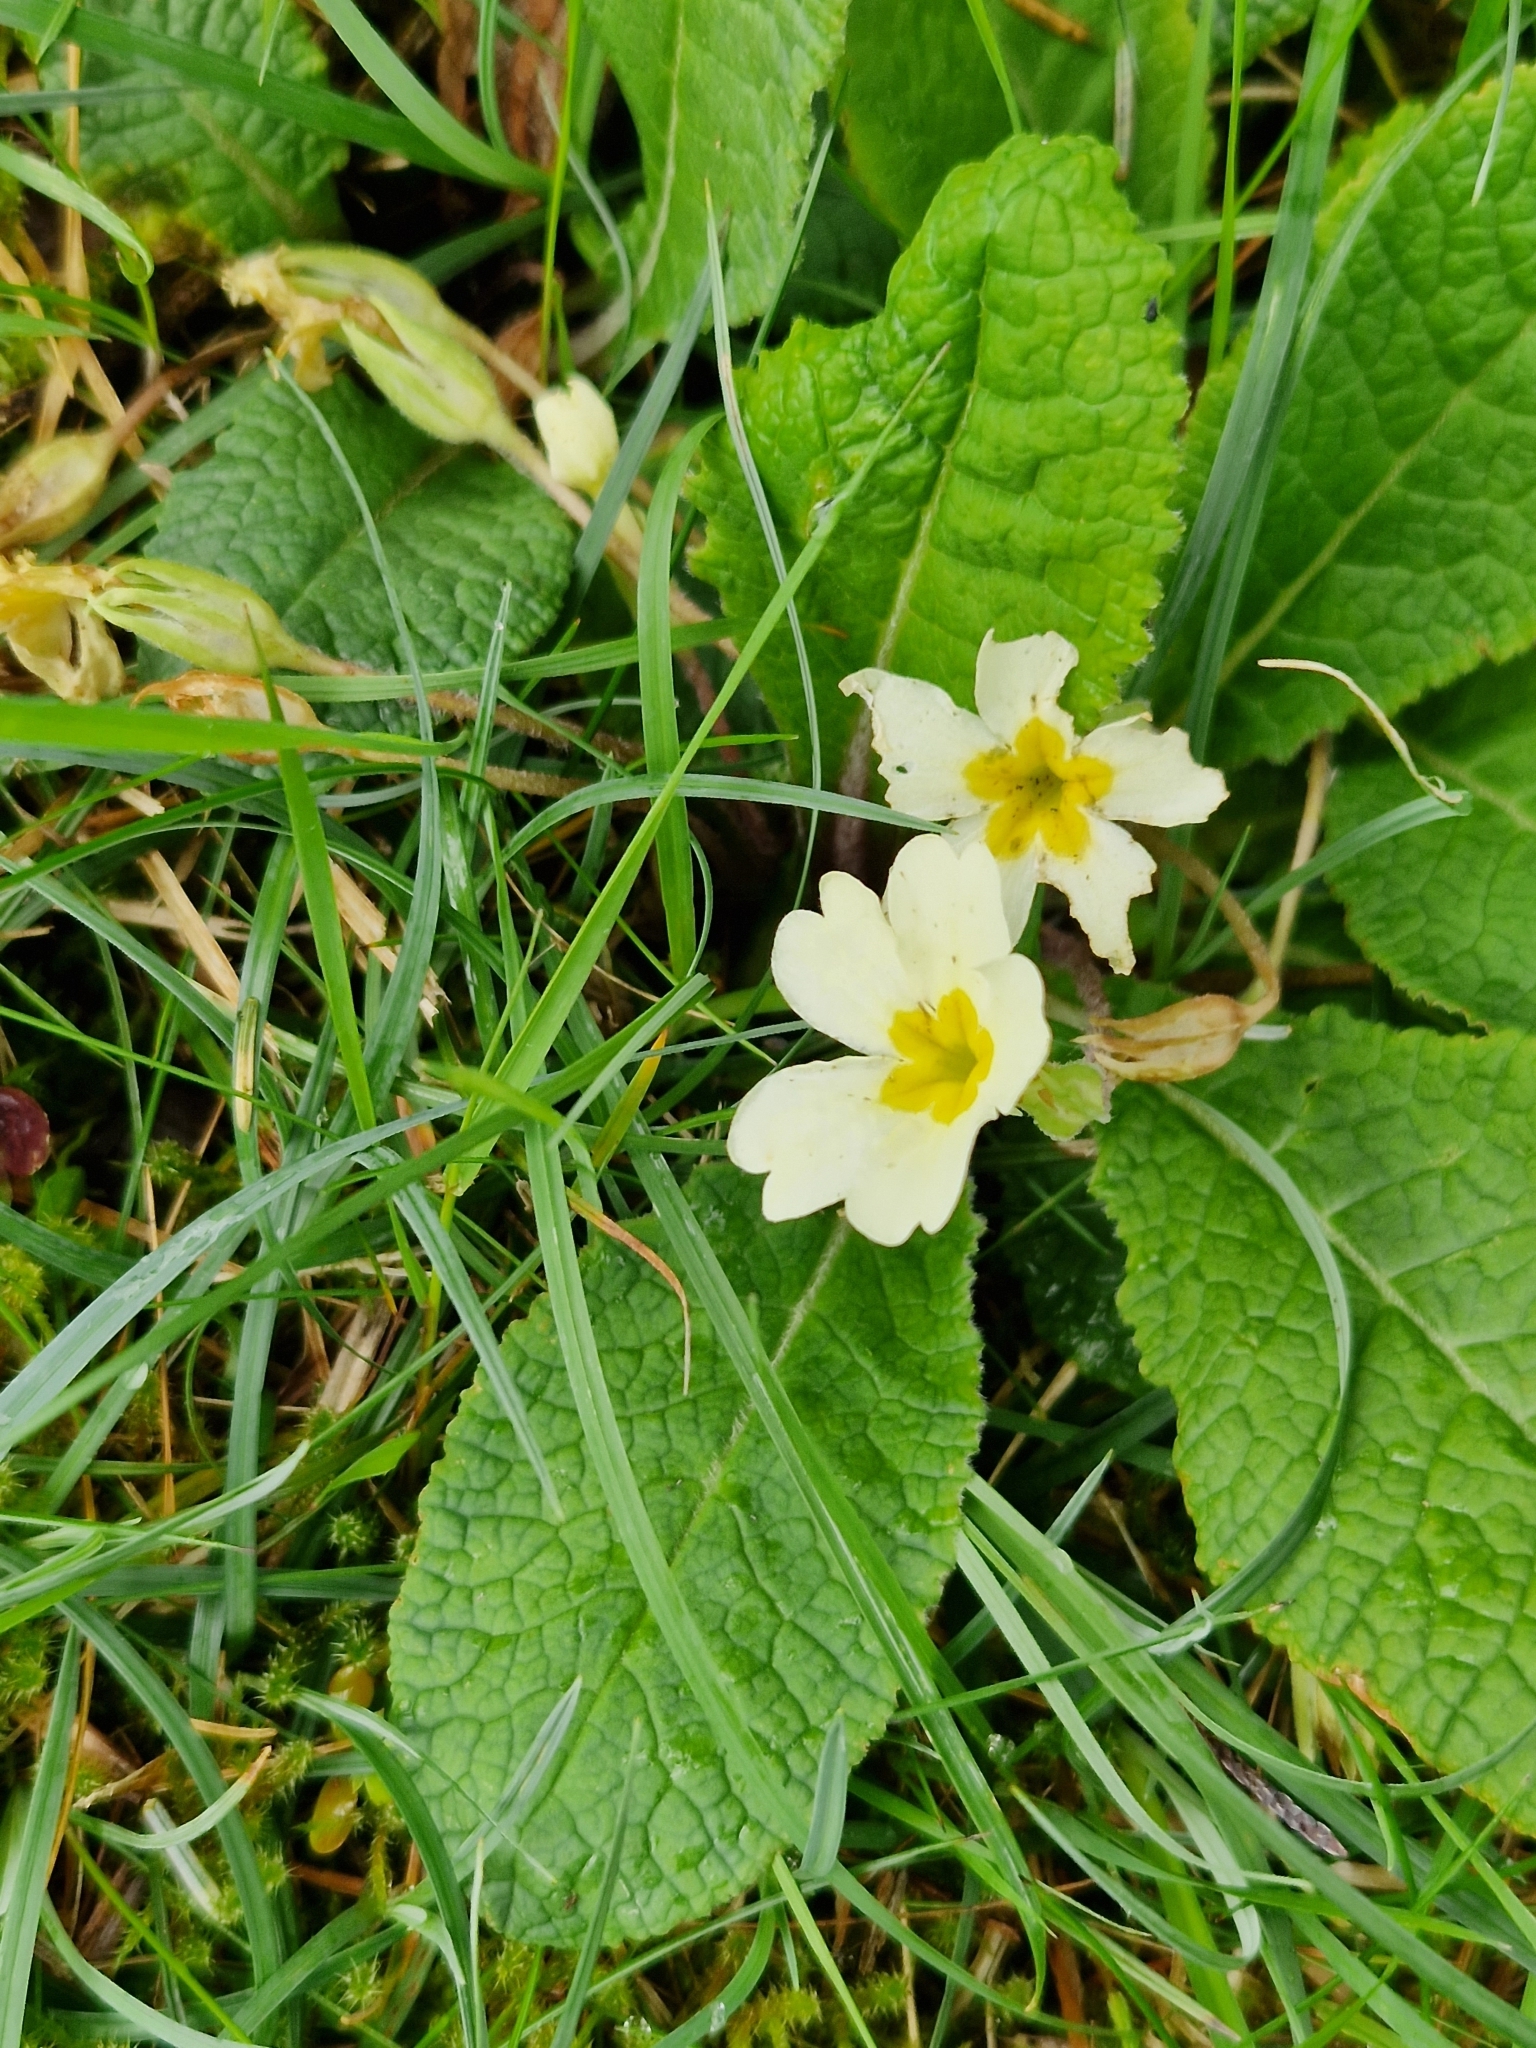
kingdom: Plantae
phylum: Tracheophyta
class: Magnoliopsida
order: Ericales
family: Primulaceae
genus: Primula
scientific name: Primula vulgaris
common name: Primrose
